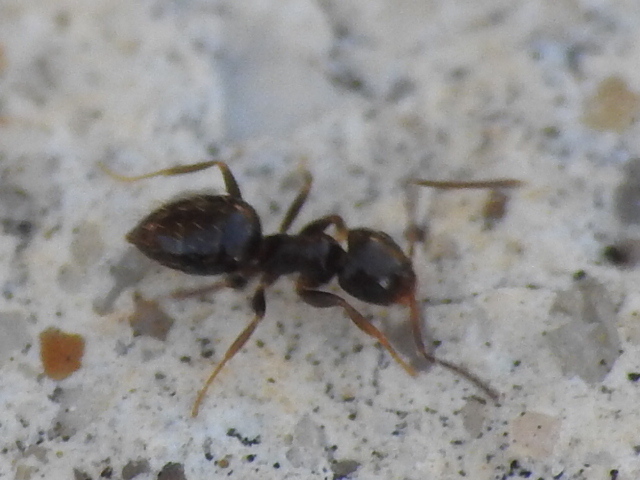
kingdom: Animalia
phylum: Arthropoda
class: Insecta
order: Hymenoptera
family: Formicidae
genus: Brachymyrmex
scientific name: Brachymyrmex patagonicus
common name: Dark rover ant
